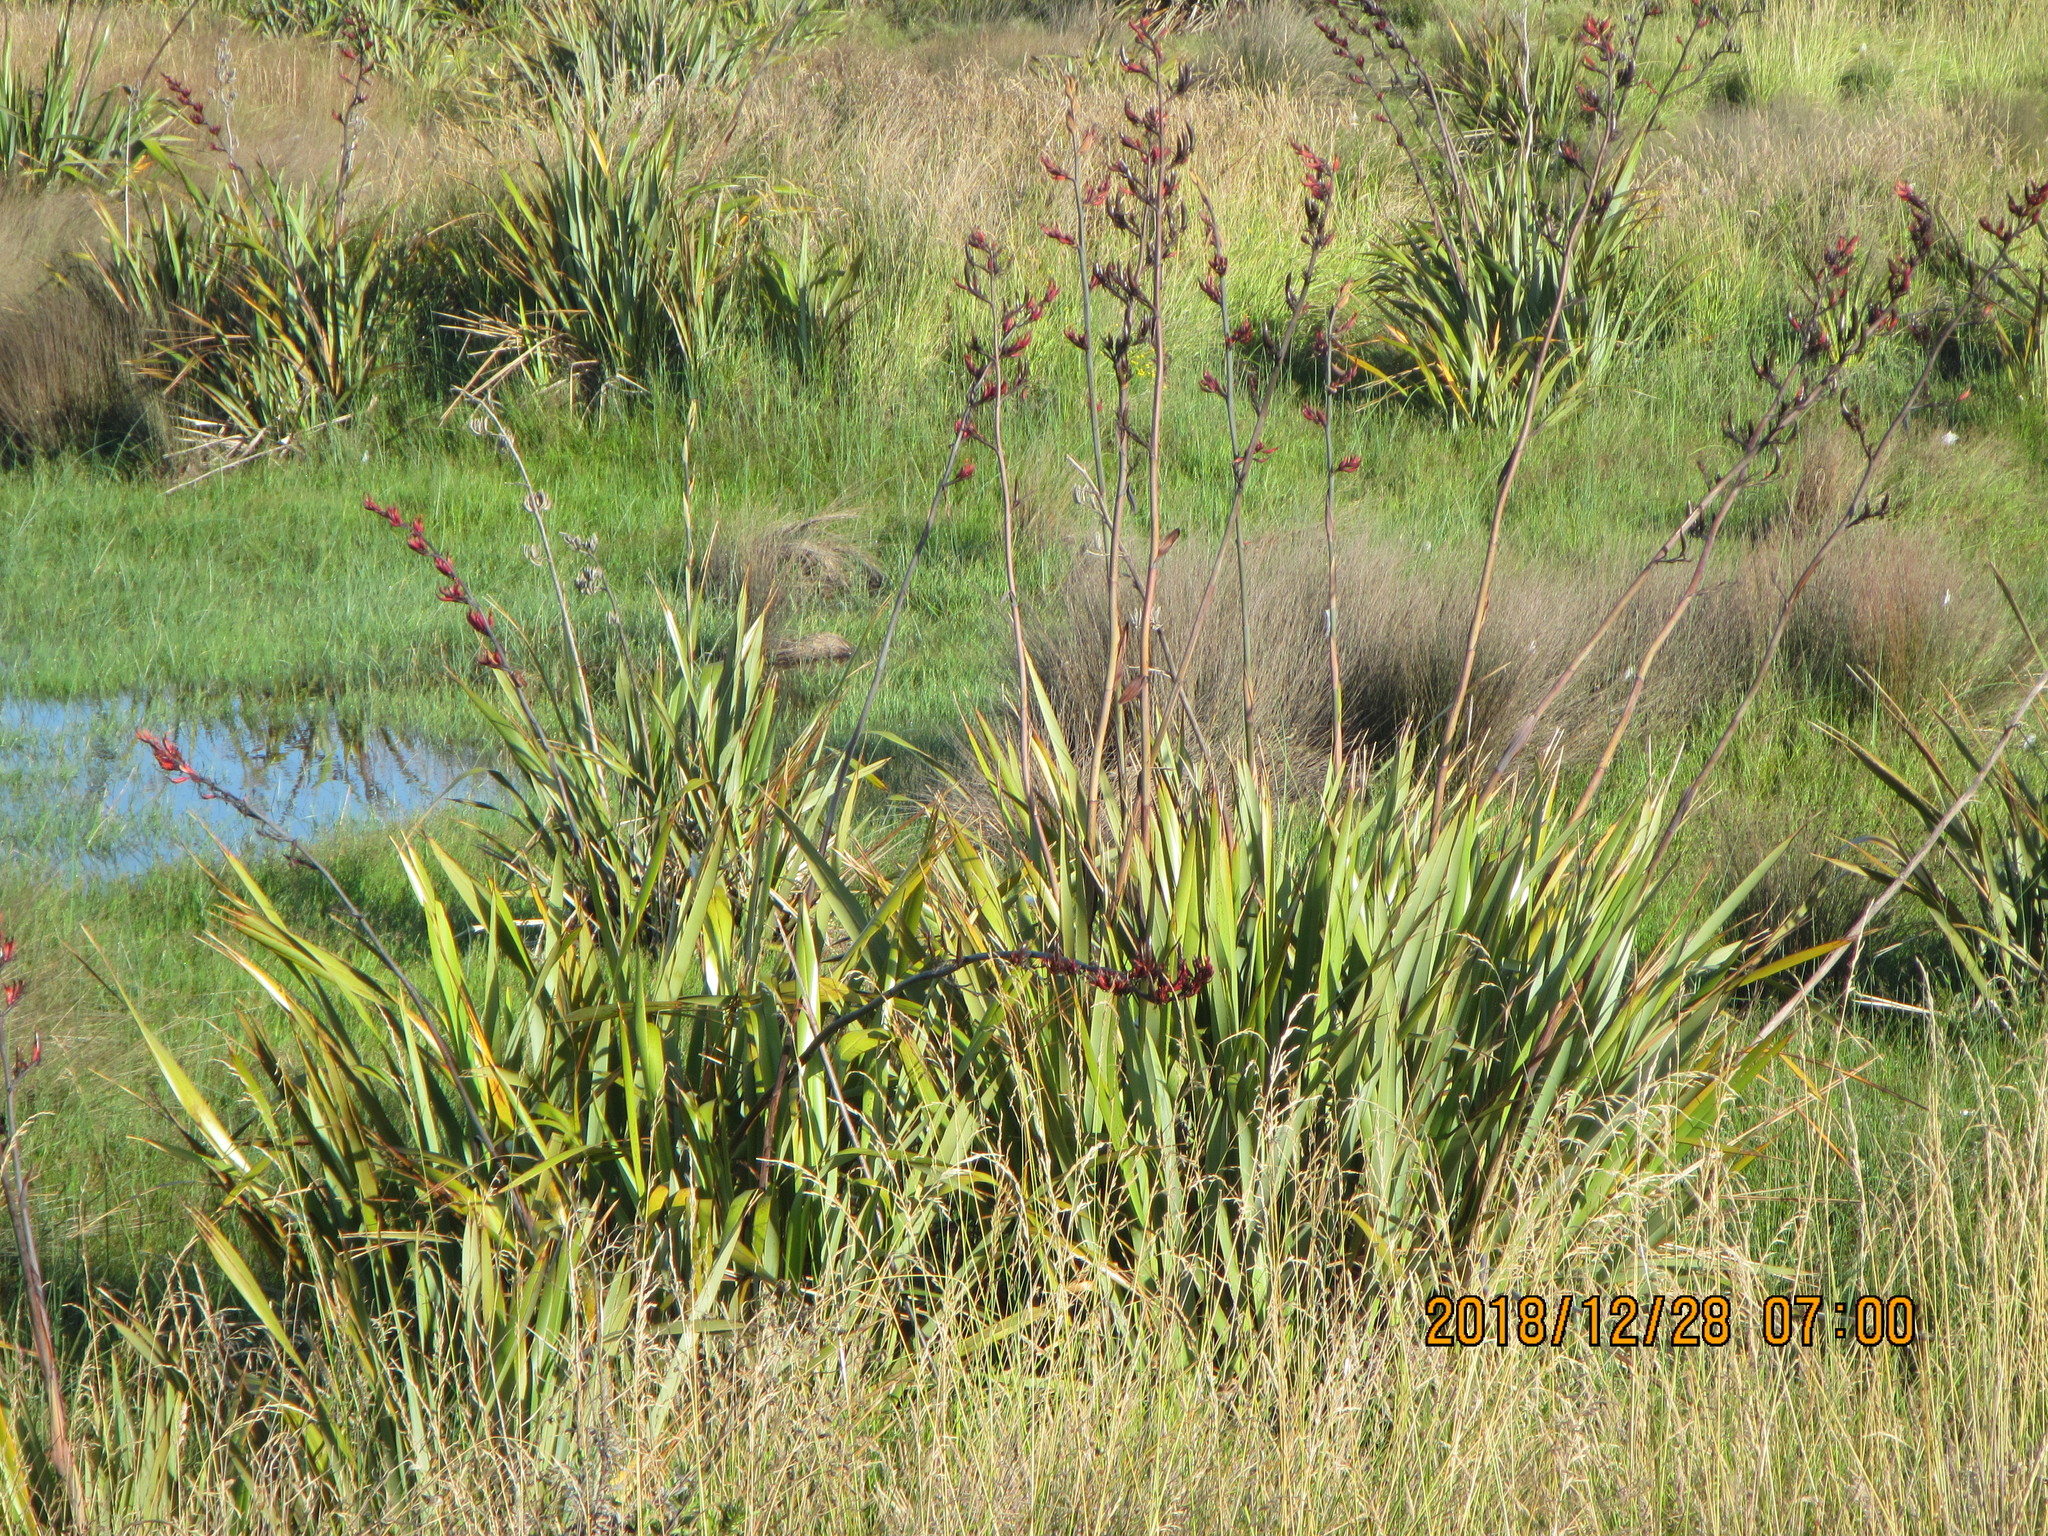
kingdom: Plantae
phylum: Tracheophyta
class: Liliopsida
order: Asparagales
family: Asphodelaceae
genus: Phormium
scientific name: Phormium tenax
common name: New zealand flax
